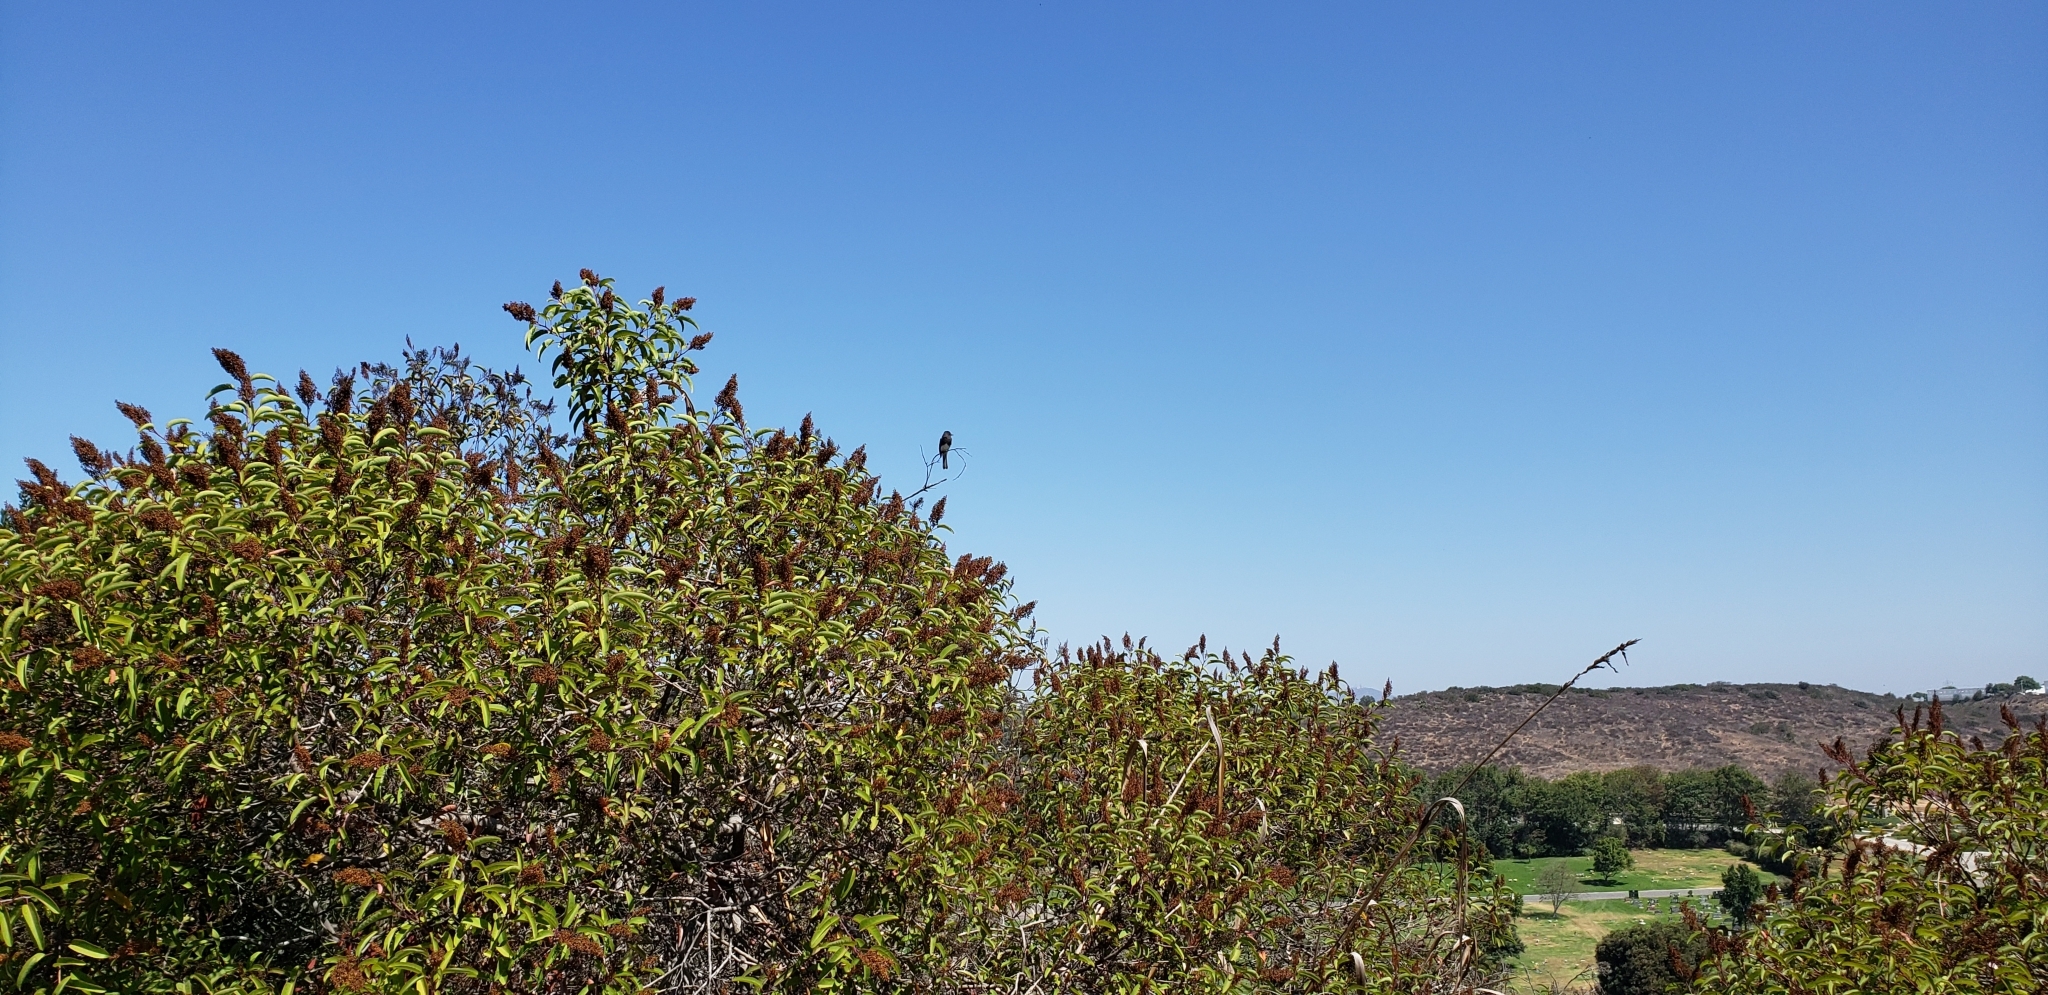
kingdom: Animalia
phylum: Chordata
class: Aves
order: Passeriformes
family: Tyrannidae
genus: Sayornis
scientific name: Sayornis nigricans
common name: Black phoebe
